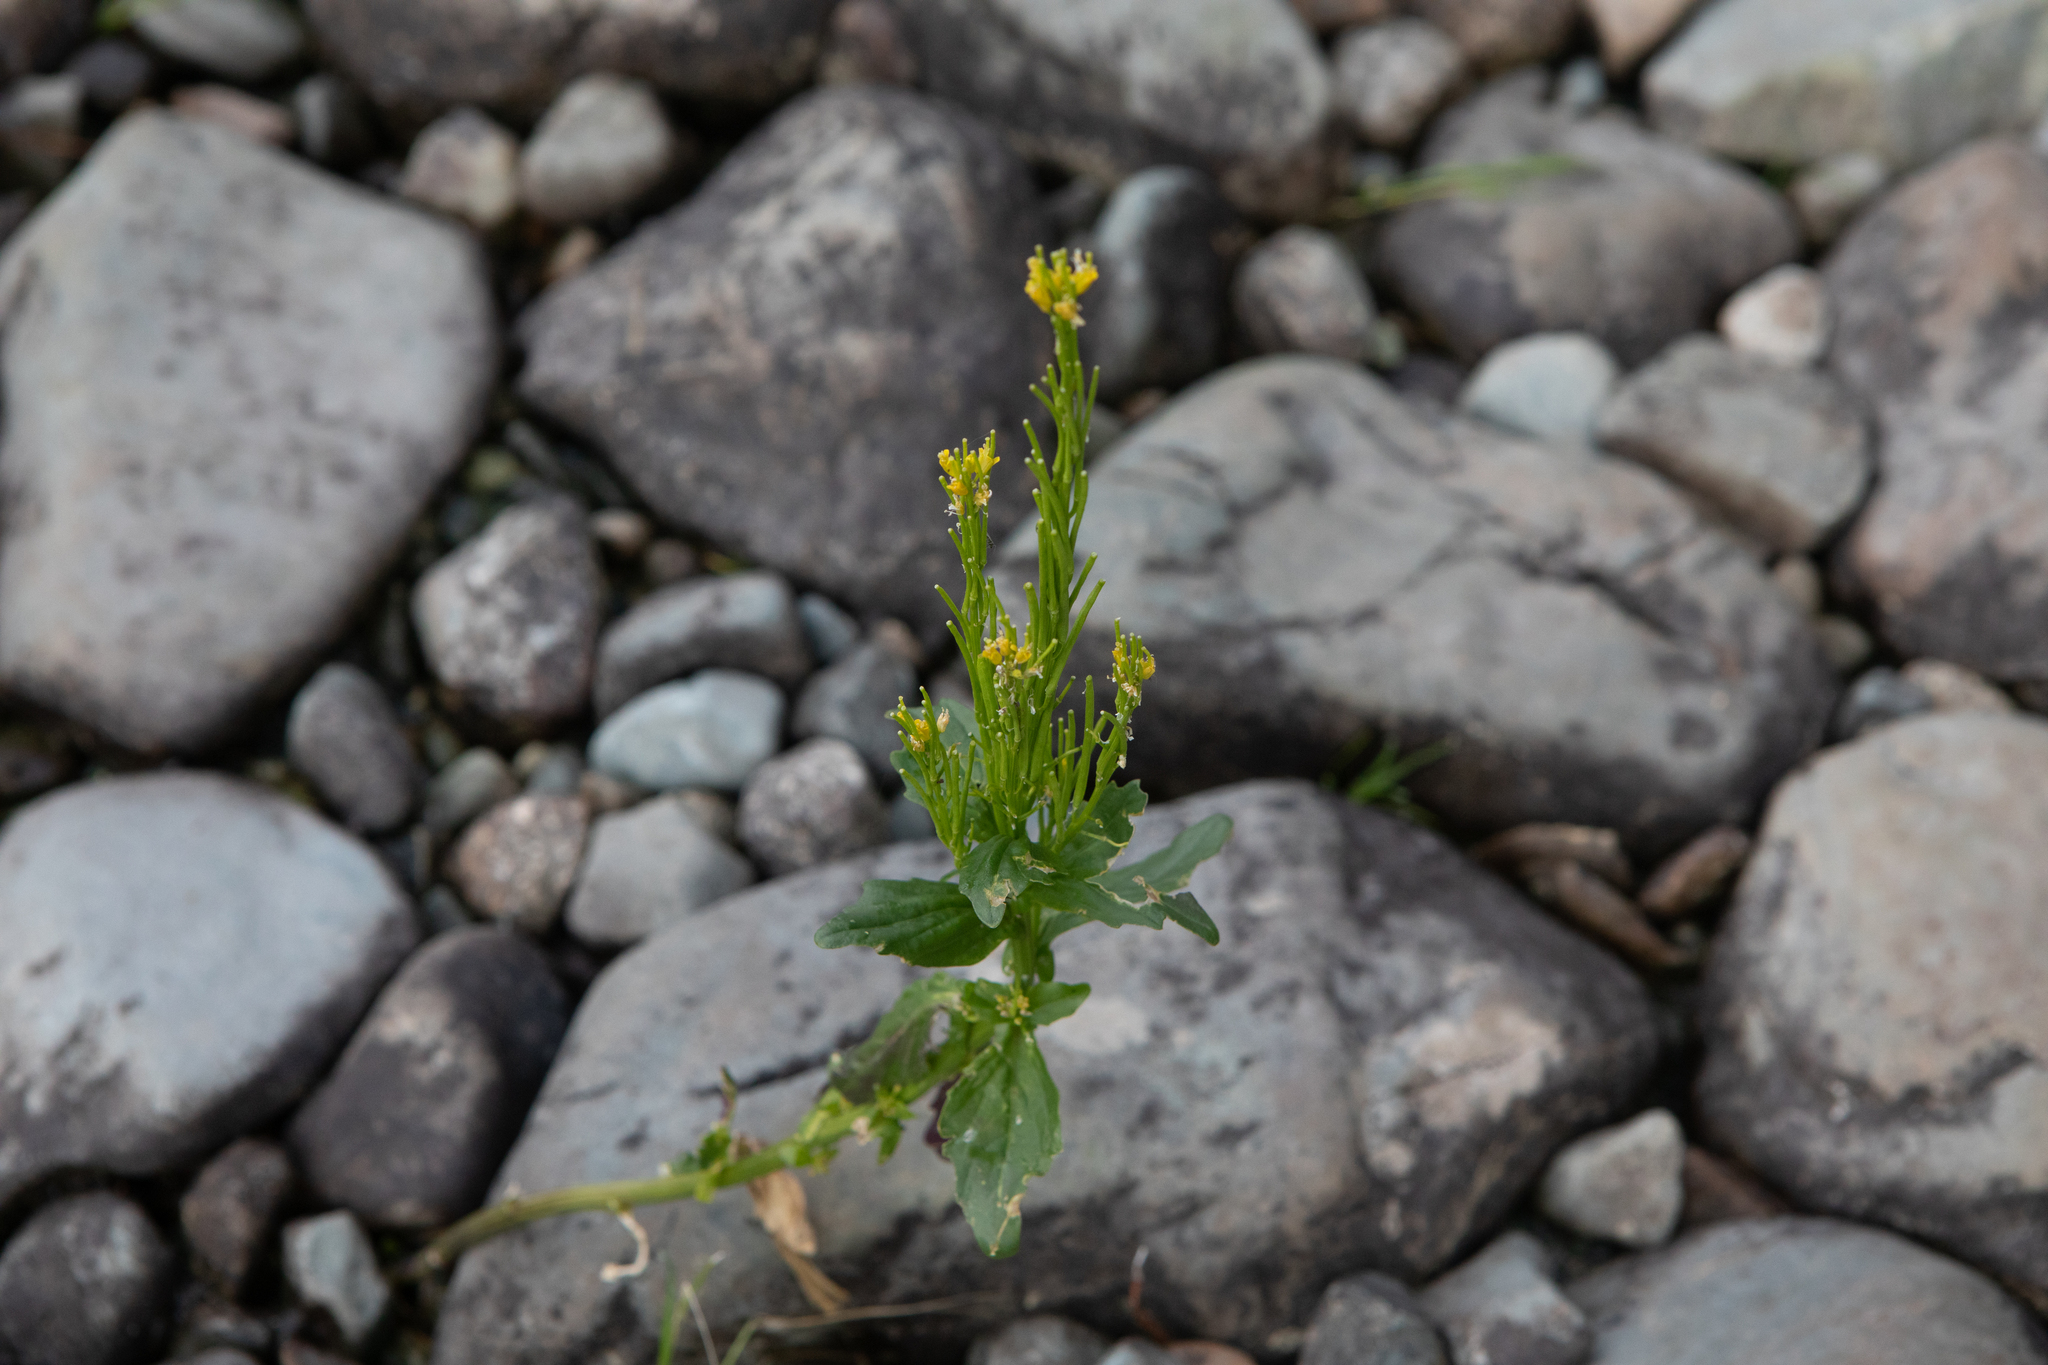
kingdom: Plantae
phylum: Tracheophyta
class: Magnoliopsida
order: Brassicales
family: Brassicaceae
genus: Barbarea
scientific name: Barbarea stricta
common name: Small-flowered winter-cress
